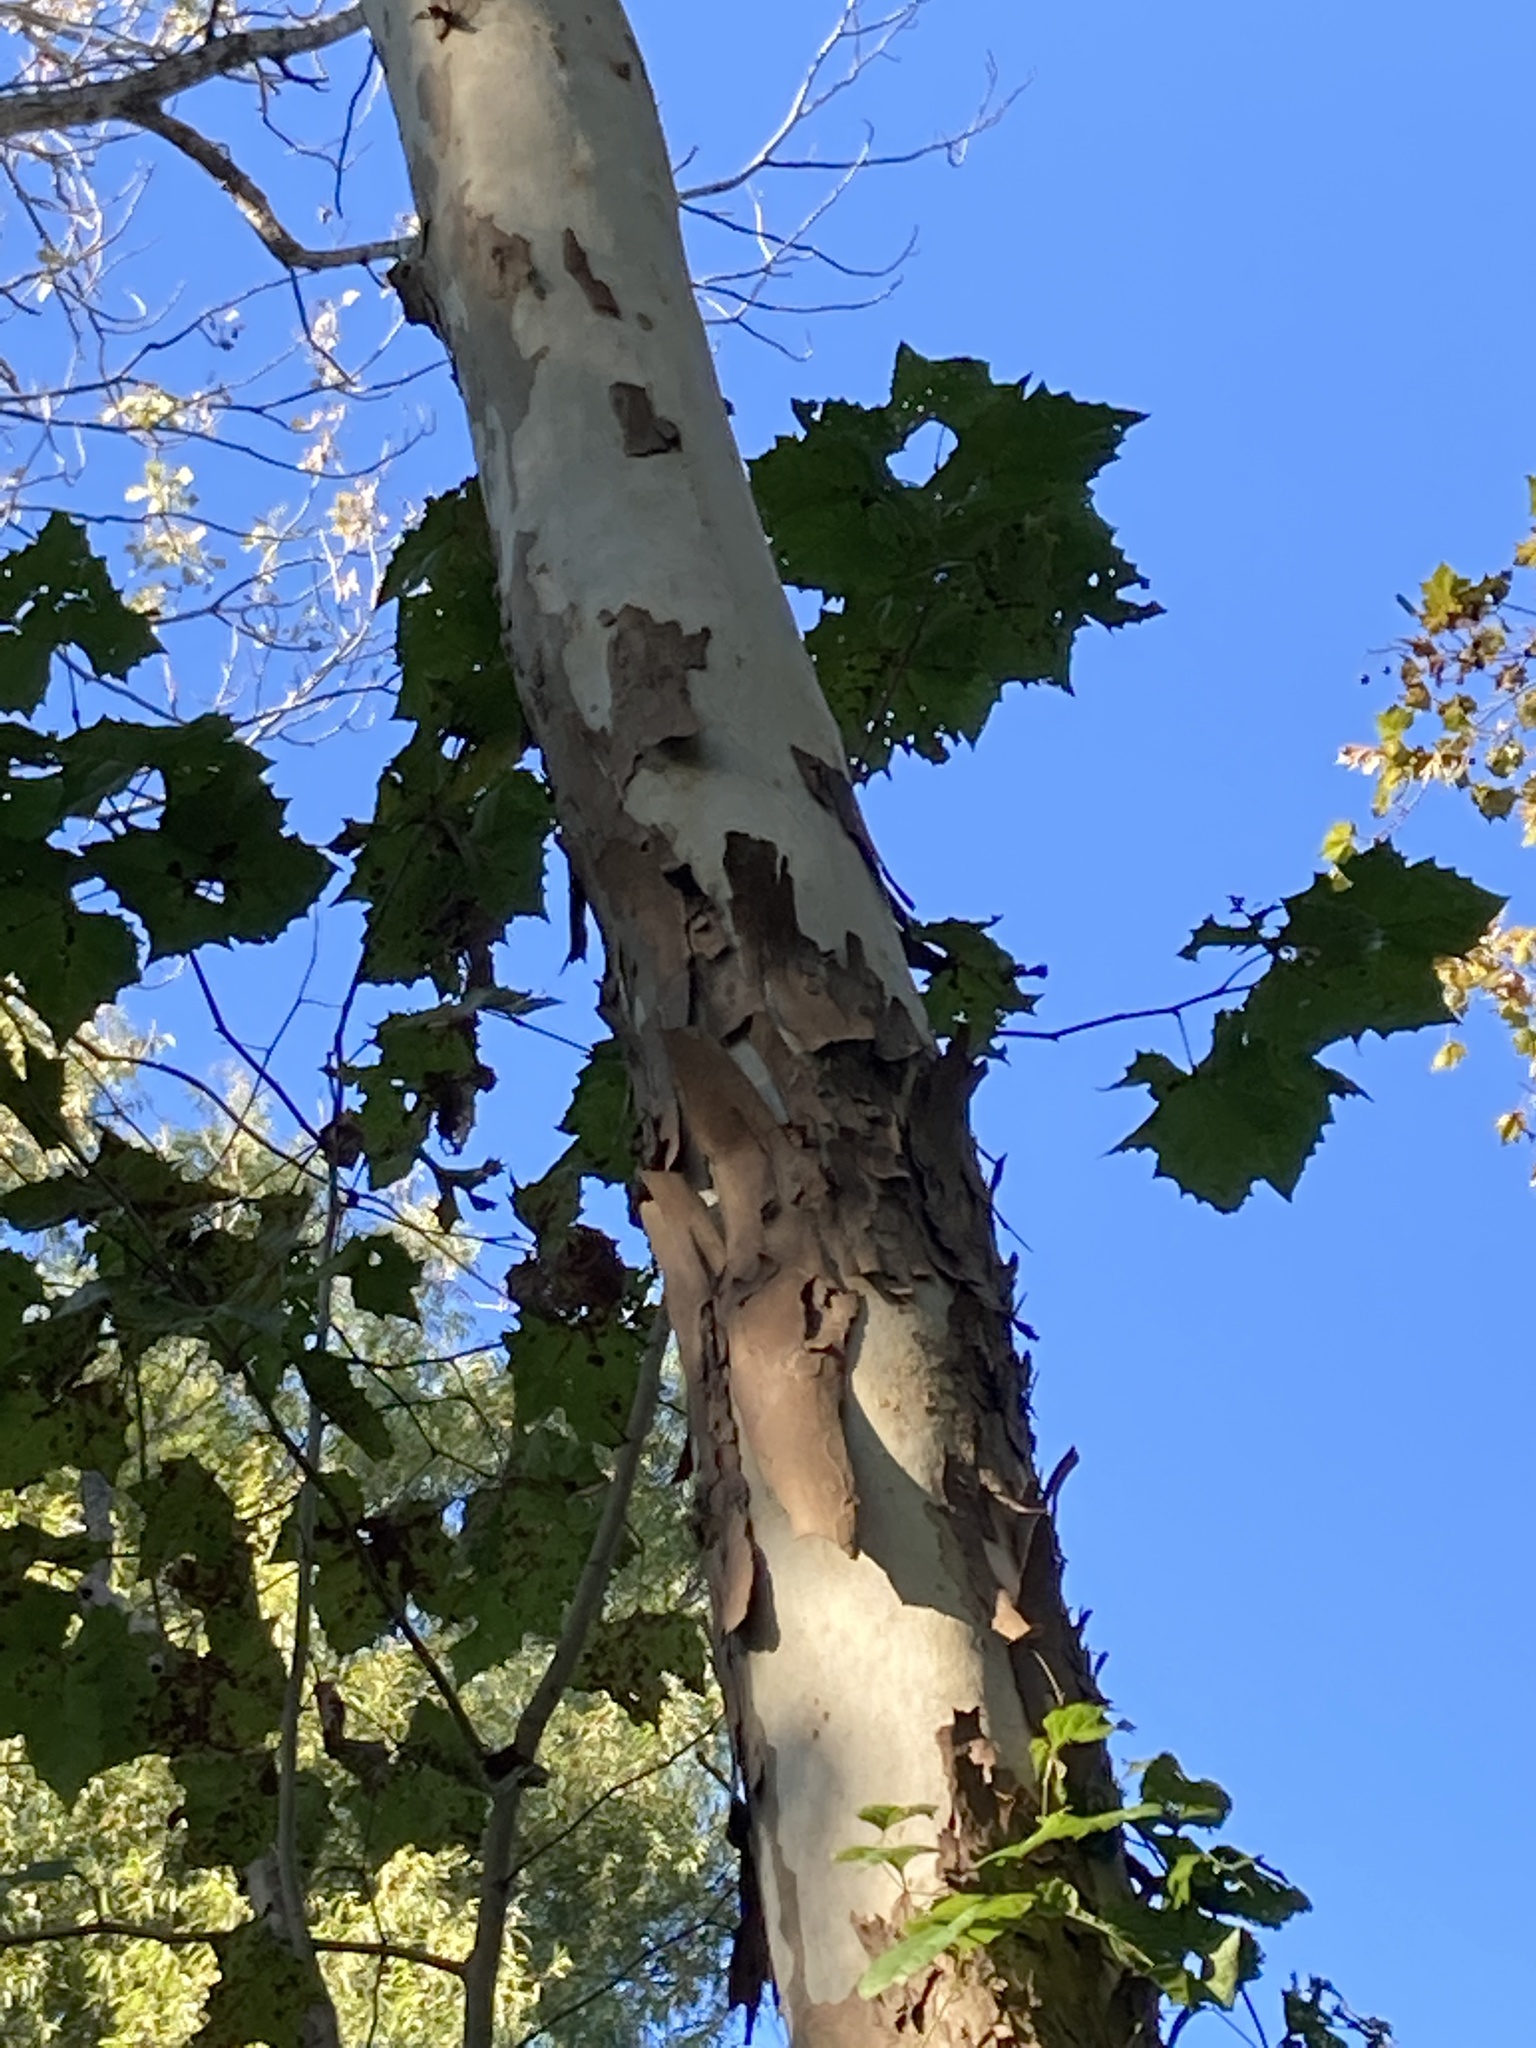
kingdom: Plantae
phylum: Tracheophyta
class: Magnoliopsida
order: Proteales
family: Platanaceae
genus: Platanus
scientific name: Platanus occidentalis
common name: American sycamore
